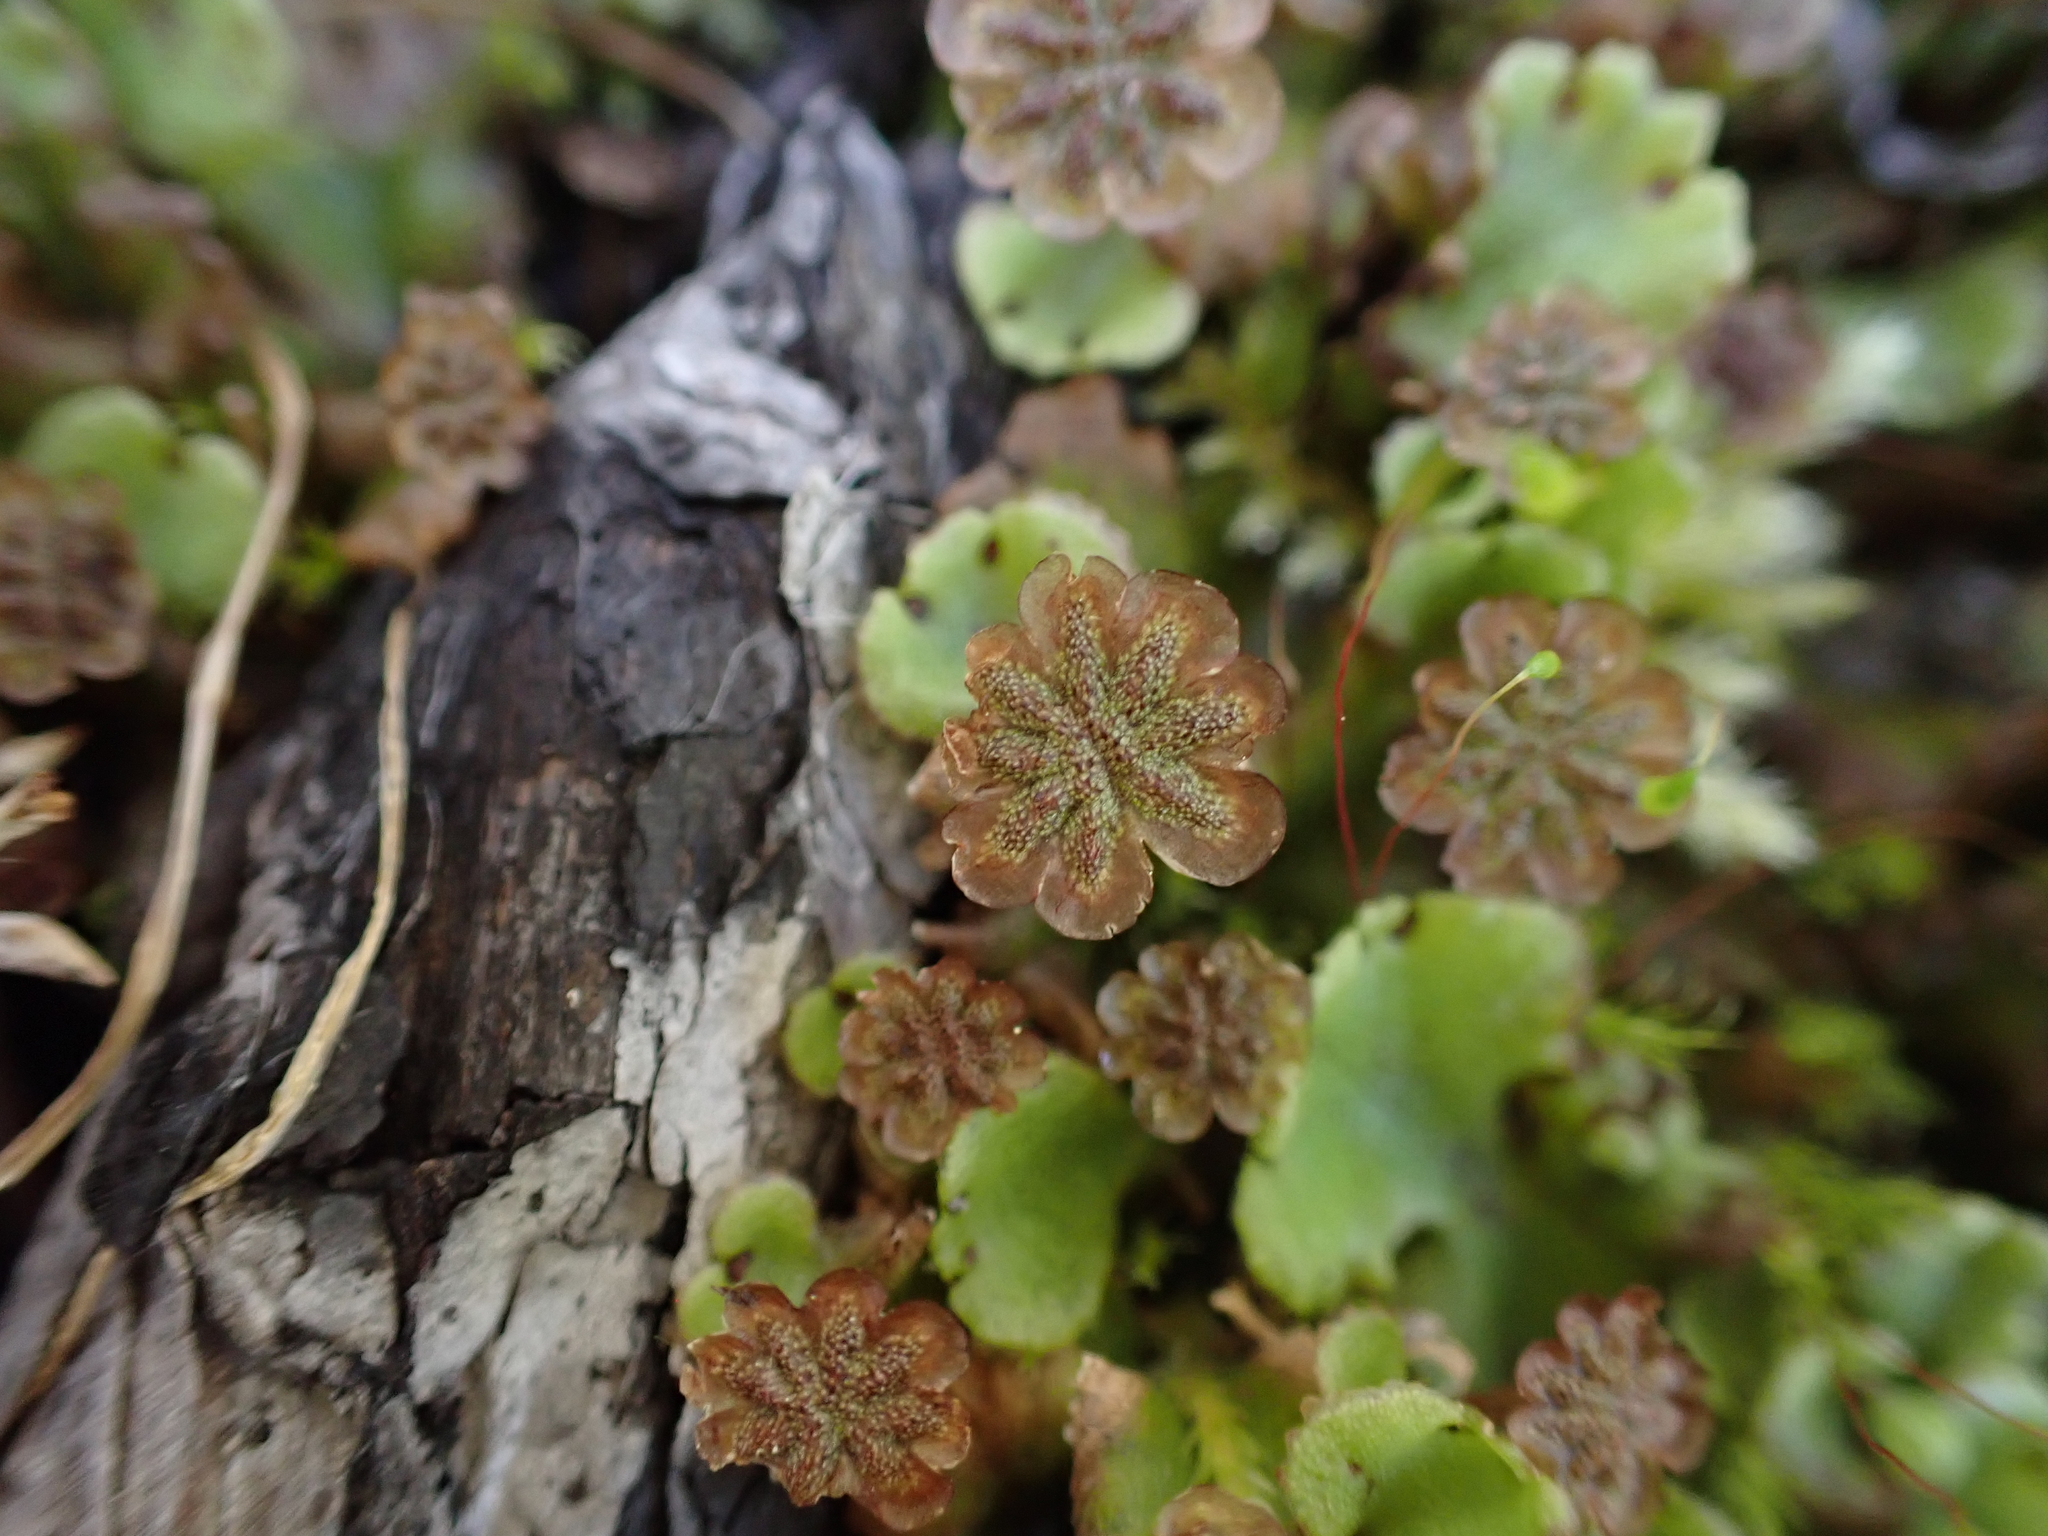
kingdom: Plantae
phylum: Marchantiophyta
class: Marchantiopsida
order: Marchantiales
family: Marchantiaceae
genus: Marchantia
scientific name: Marchantia polymorpha
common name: Common liverwort
